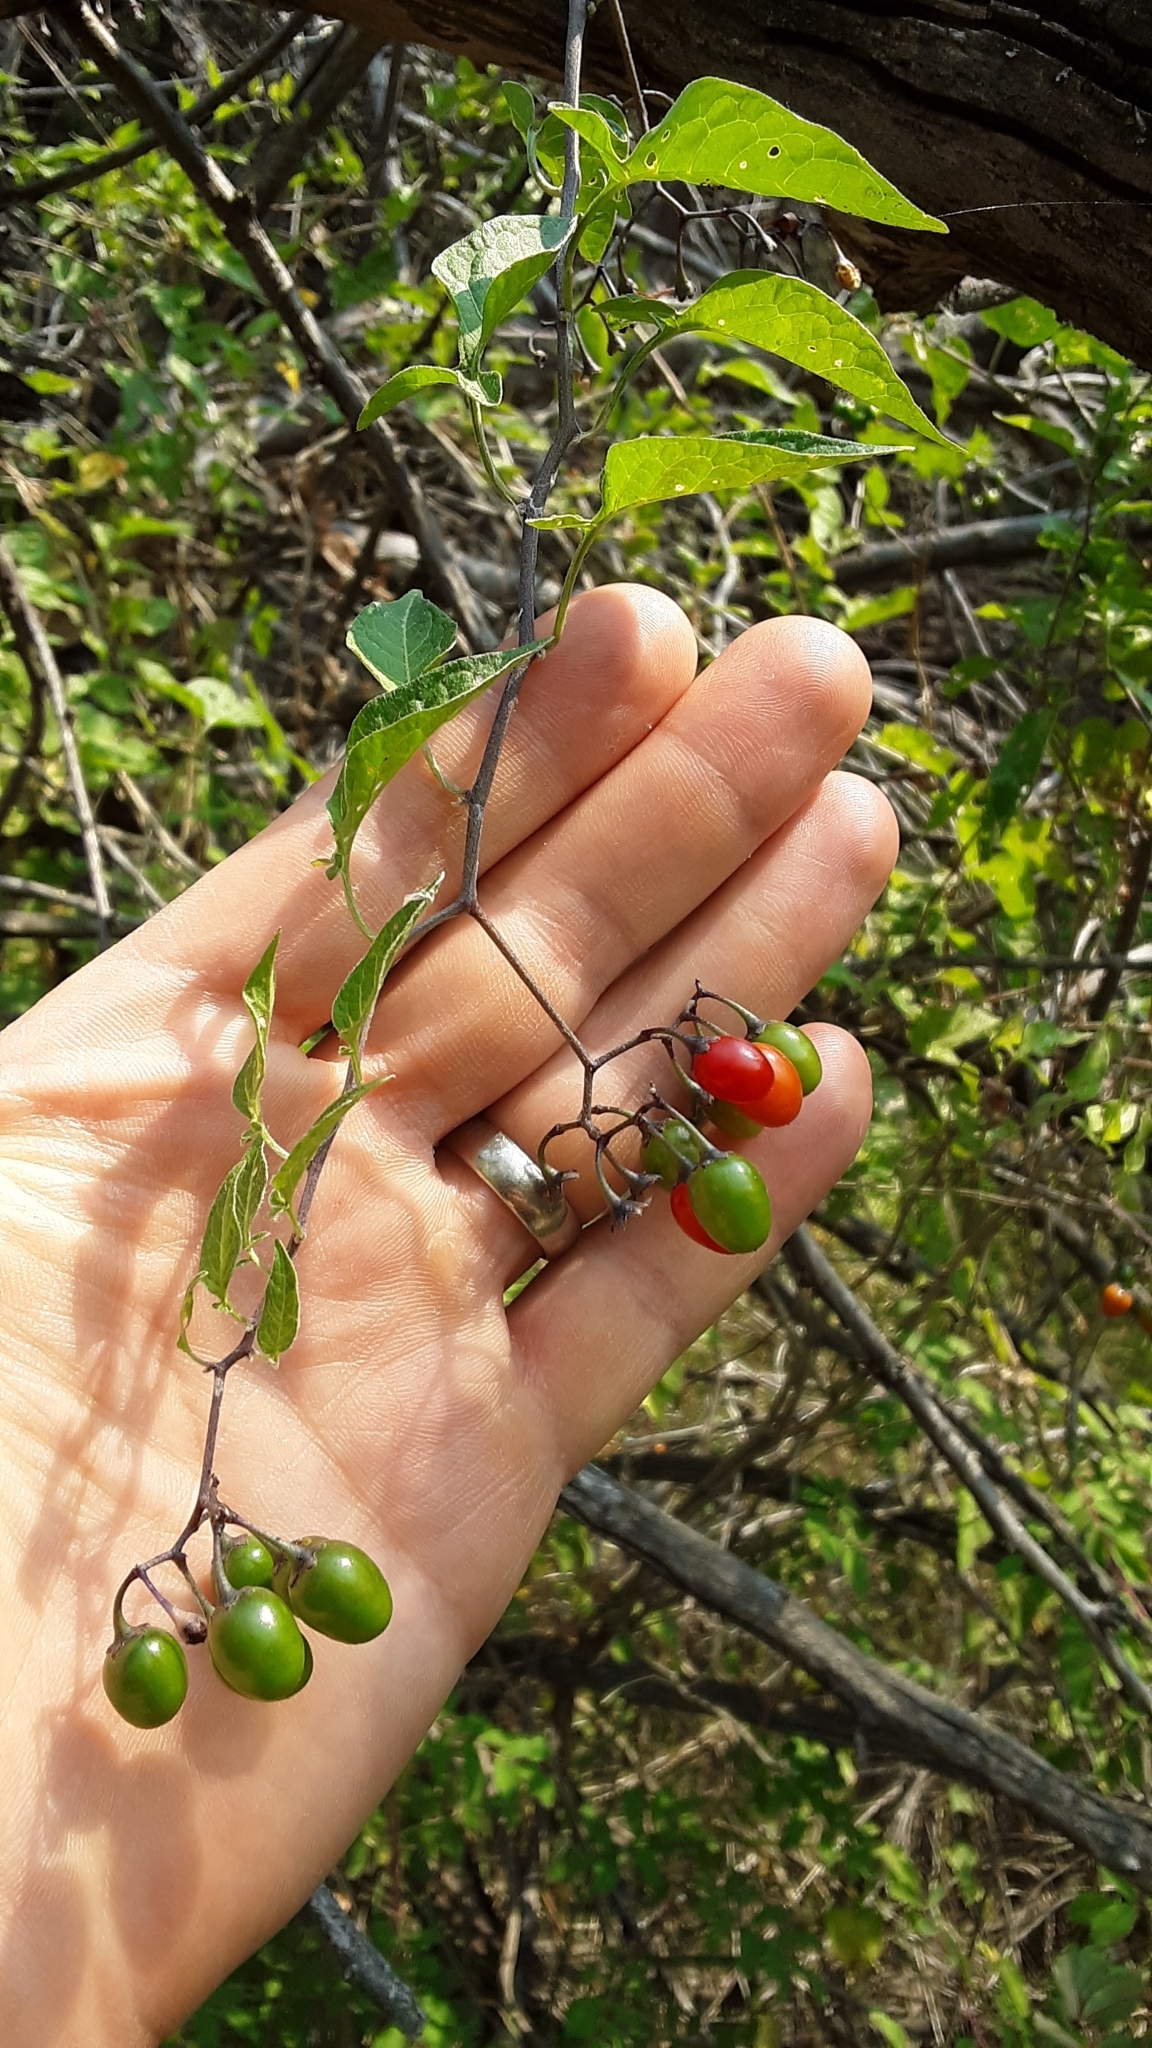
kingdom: Plantae
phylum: Tracheophyta
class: Magnoliopsida
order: Solanales
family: Solanaceae
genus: Solanum
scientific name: Solanum dulcamara
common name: Climbing nightshade
